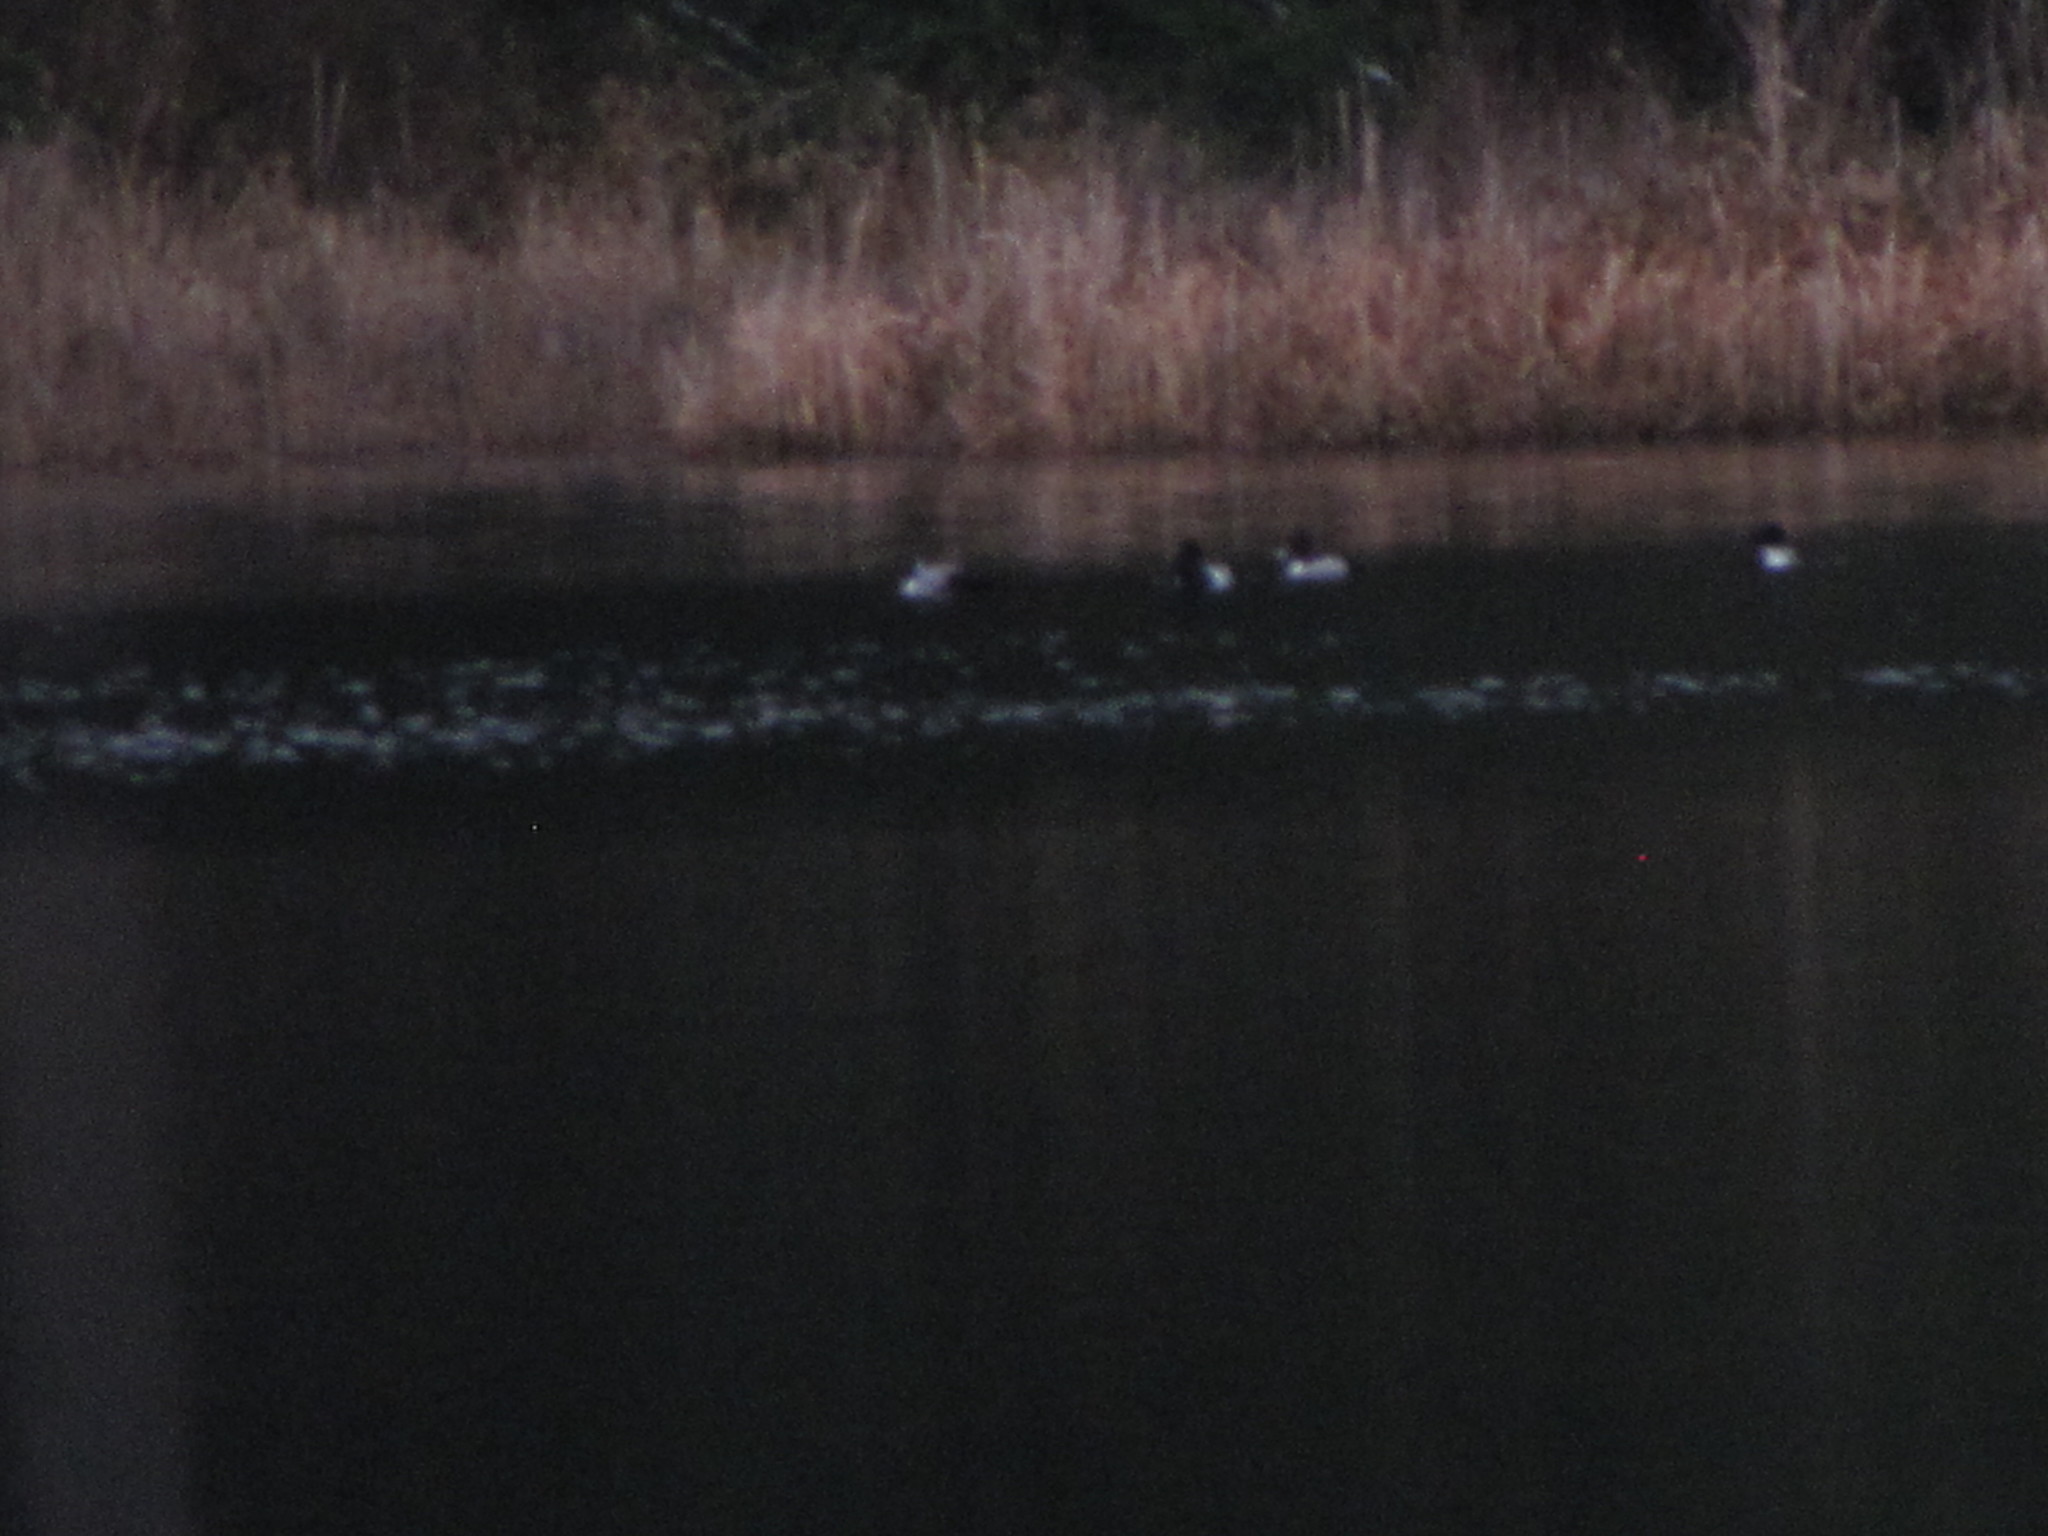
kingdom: Animalia
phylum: Chordata
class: Aves
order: Anseriformes
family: Anatidae
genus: Aythya
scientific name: Aythya collaris
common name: Ring-necked duck
